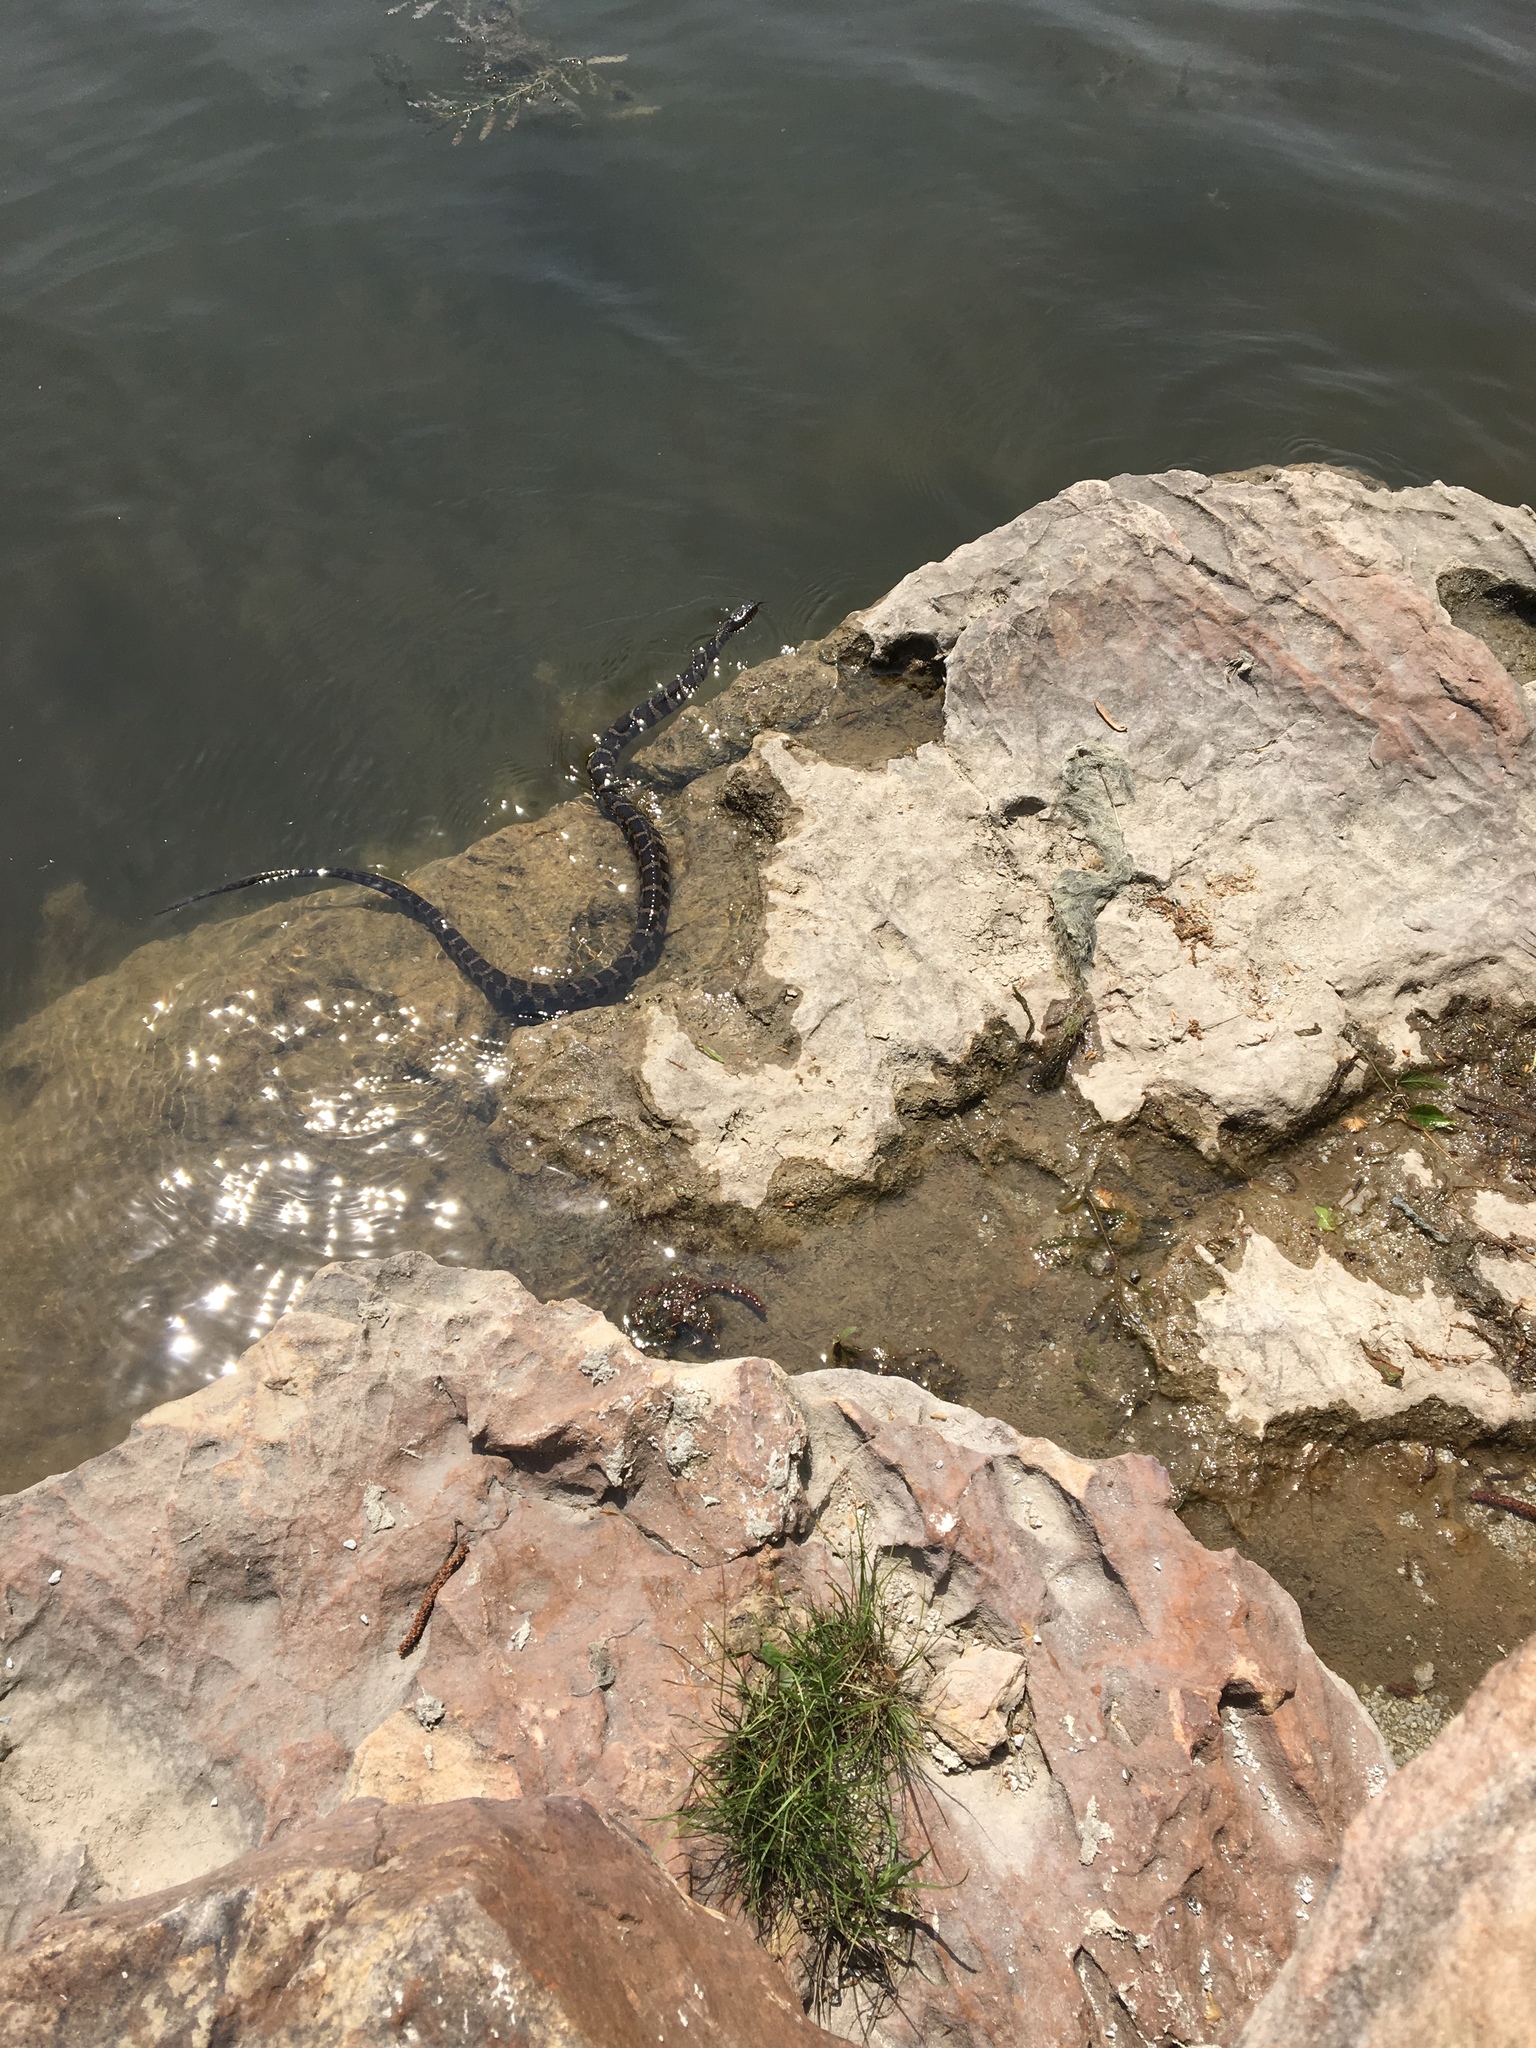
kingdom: Animalia
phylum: Chordata
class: Squamata
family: Colubridae
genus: Nerodia
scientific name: Nerodia sipedon
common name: Northern water snake
